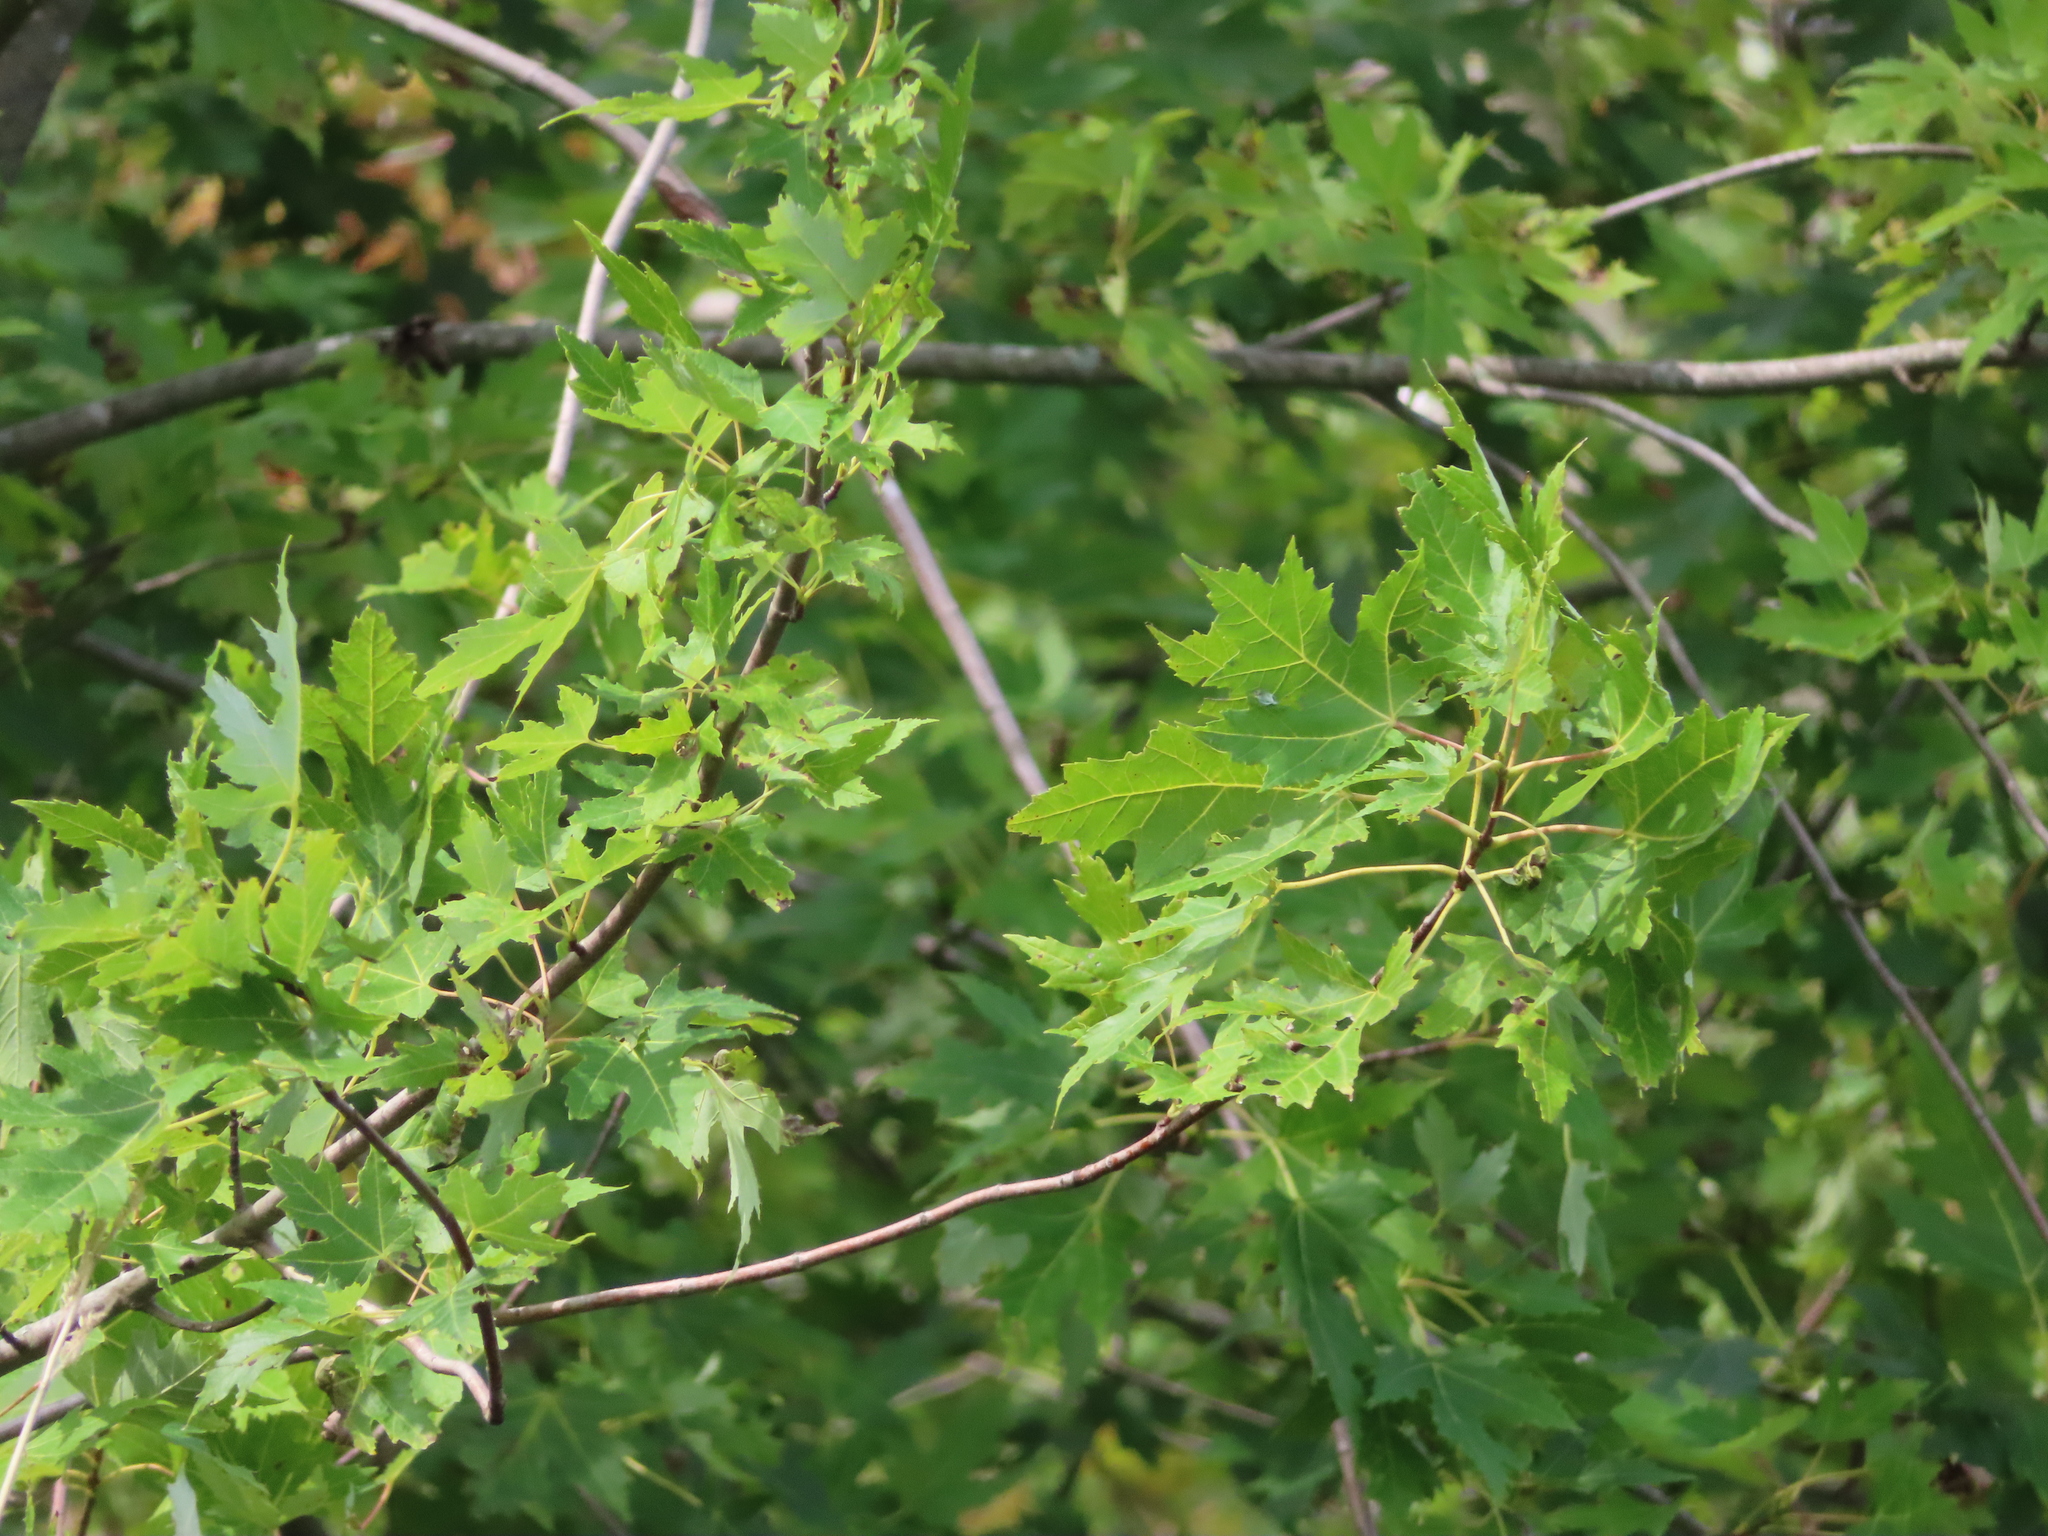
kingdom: Plantae
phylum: Tracheophyta
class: Magnoliopsida
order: Sapindales
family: Sapindaceae
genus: Acer
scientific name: Acer saccharinum
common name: Silver maple
